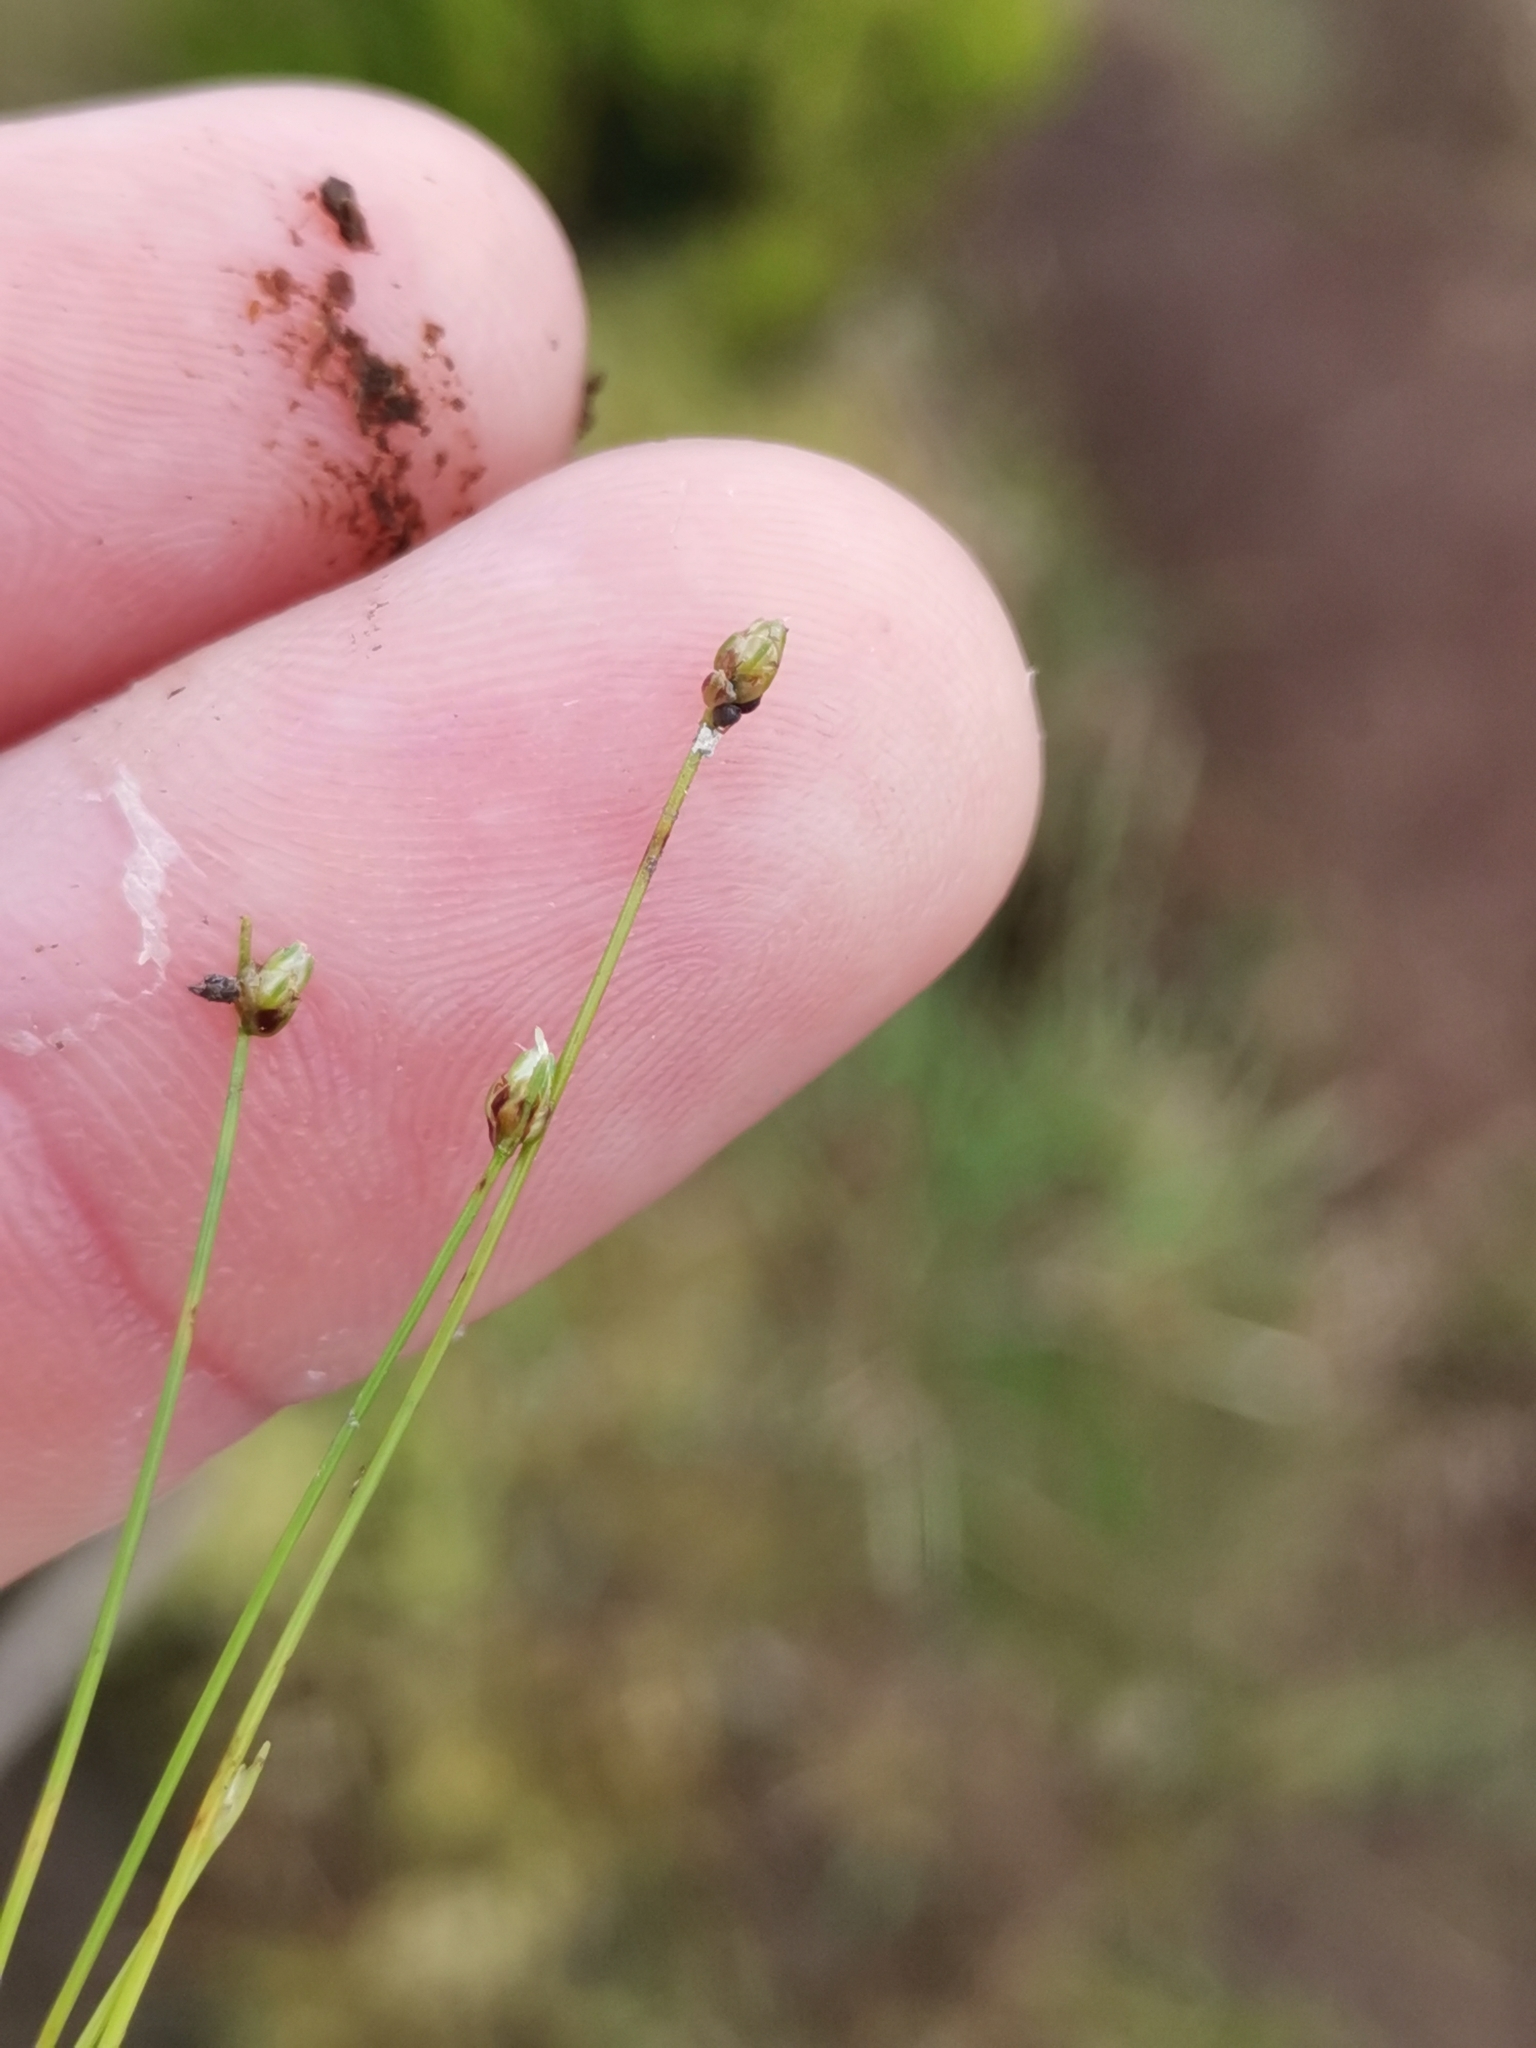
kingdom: Plantae
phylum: Tracheophyta
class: Liliopsida
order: Poales
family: Cyperaceae
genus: Isolepis
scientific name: Isolepis cernua
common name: Slender club-rush
